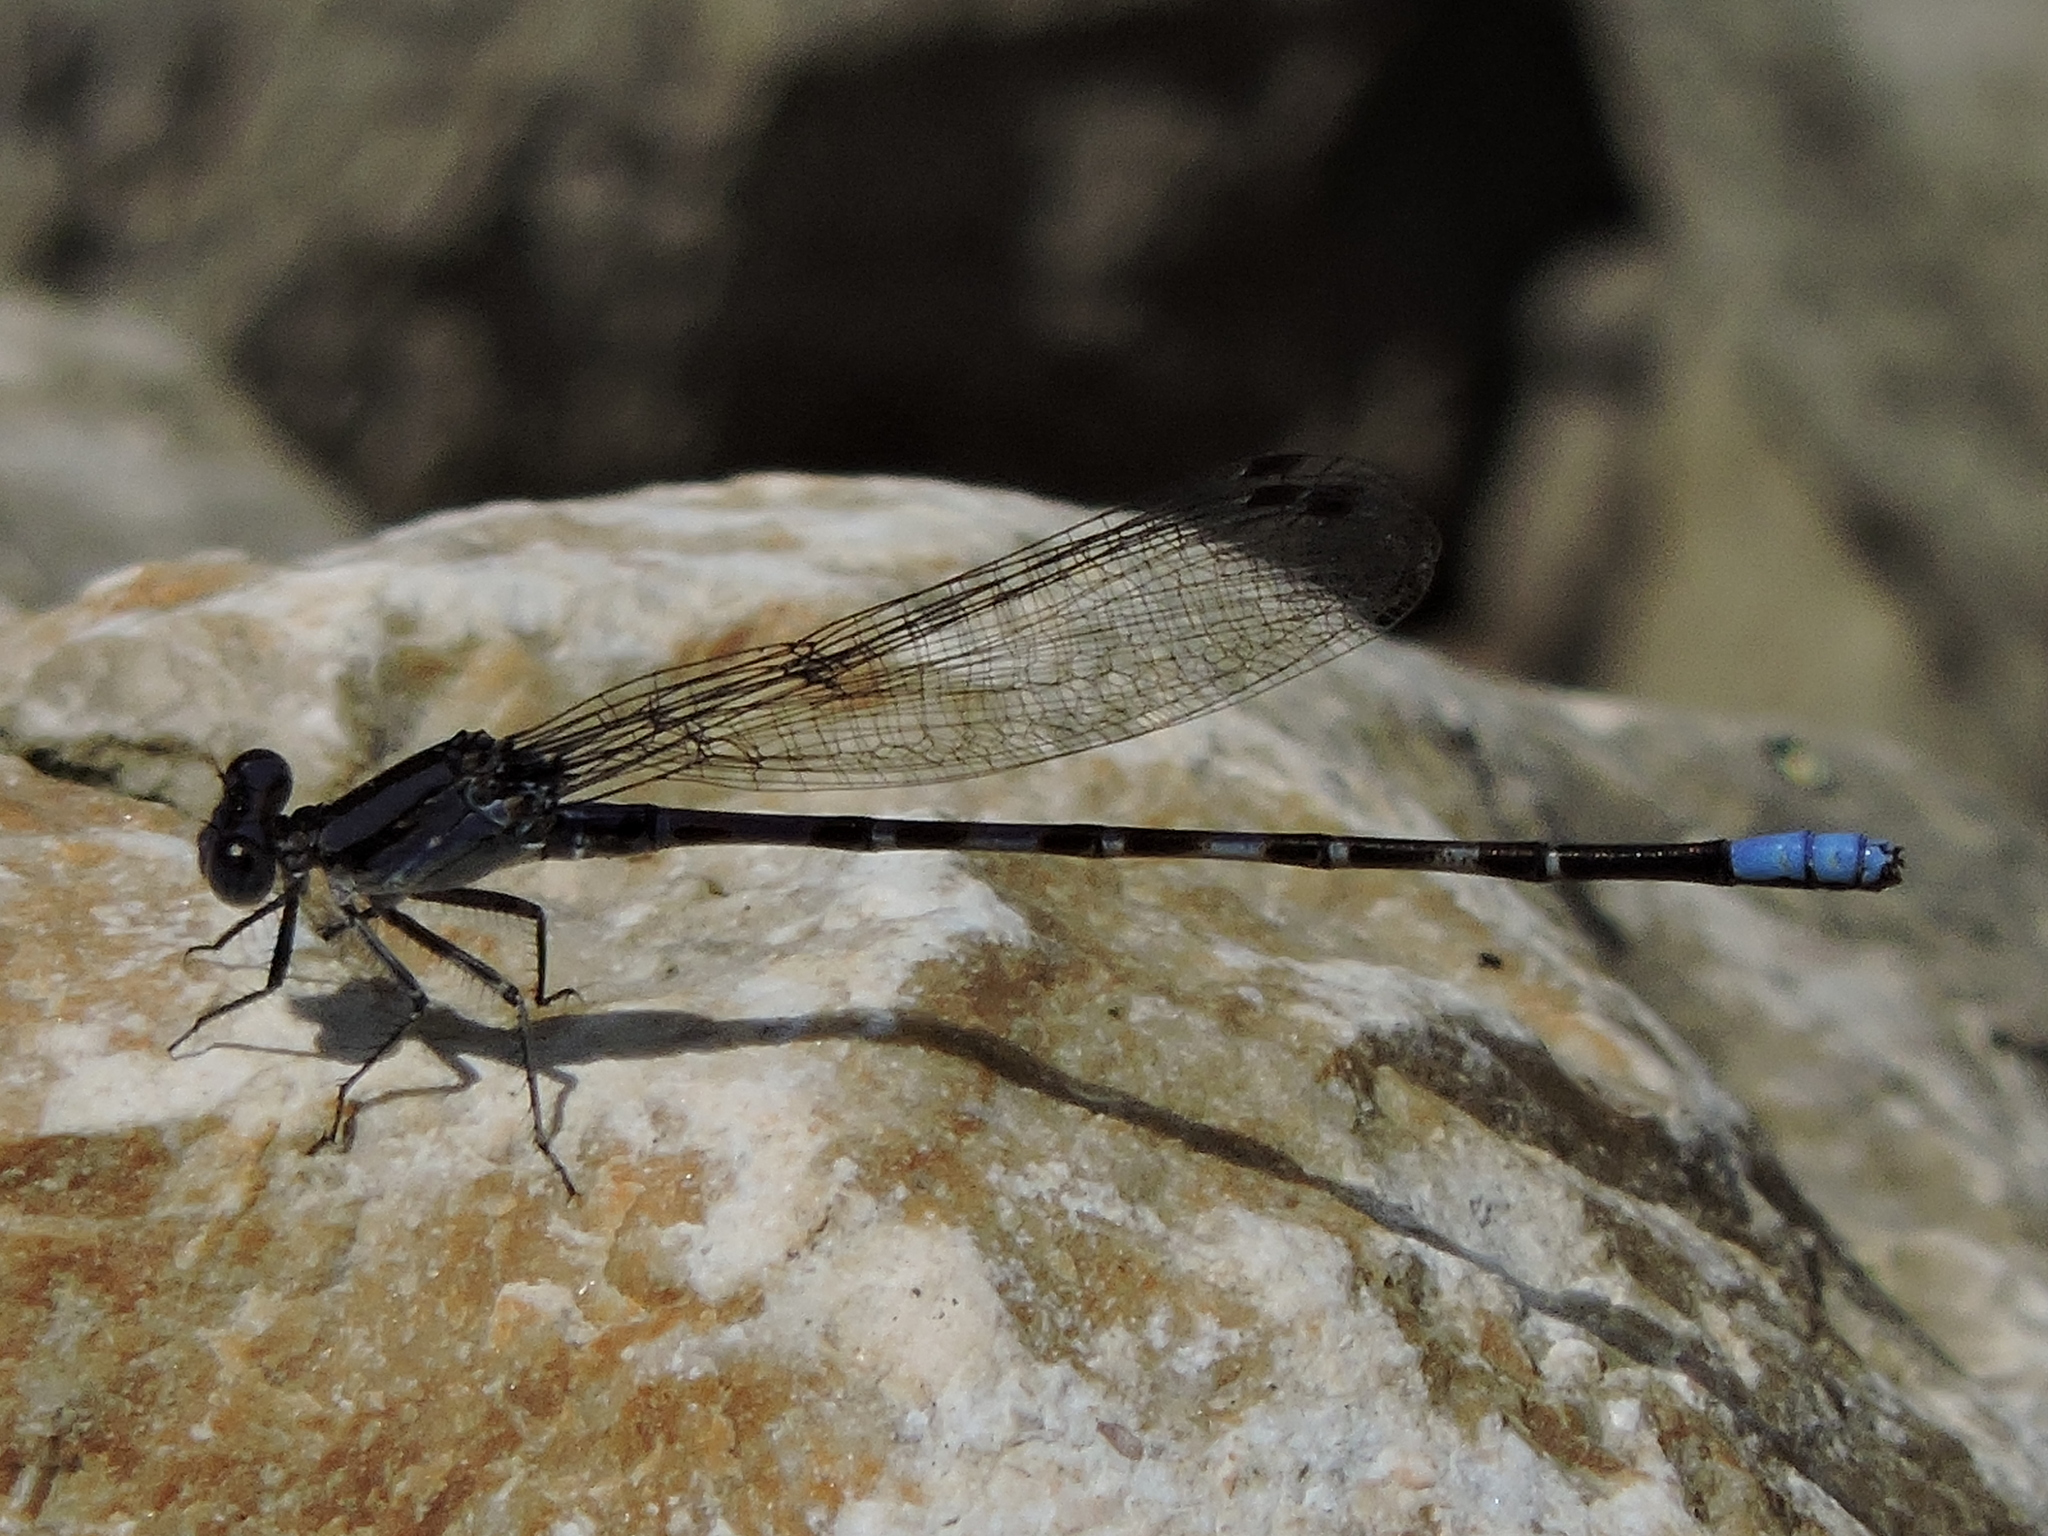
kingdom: Animalia
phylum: Arthropoda
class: Insecta
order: Odonata
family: Coenagrionidae
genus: Argia
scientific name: Argia immunda
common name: Kiowa dancer
